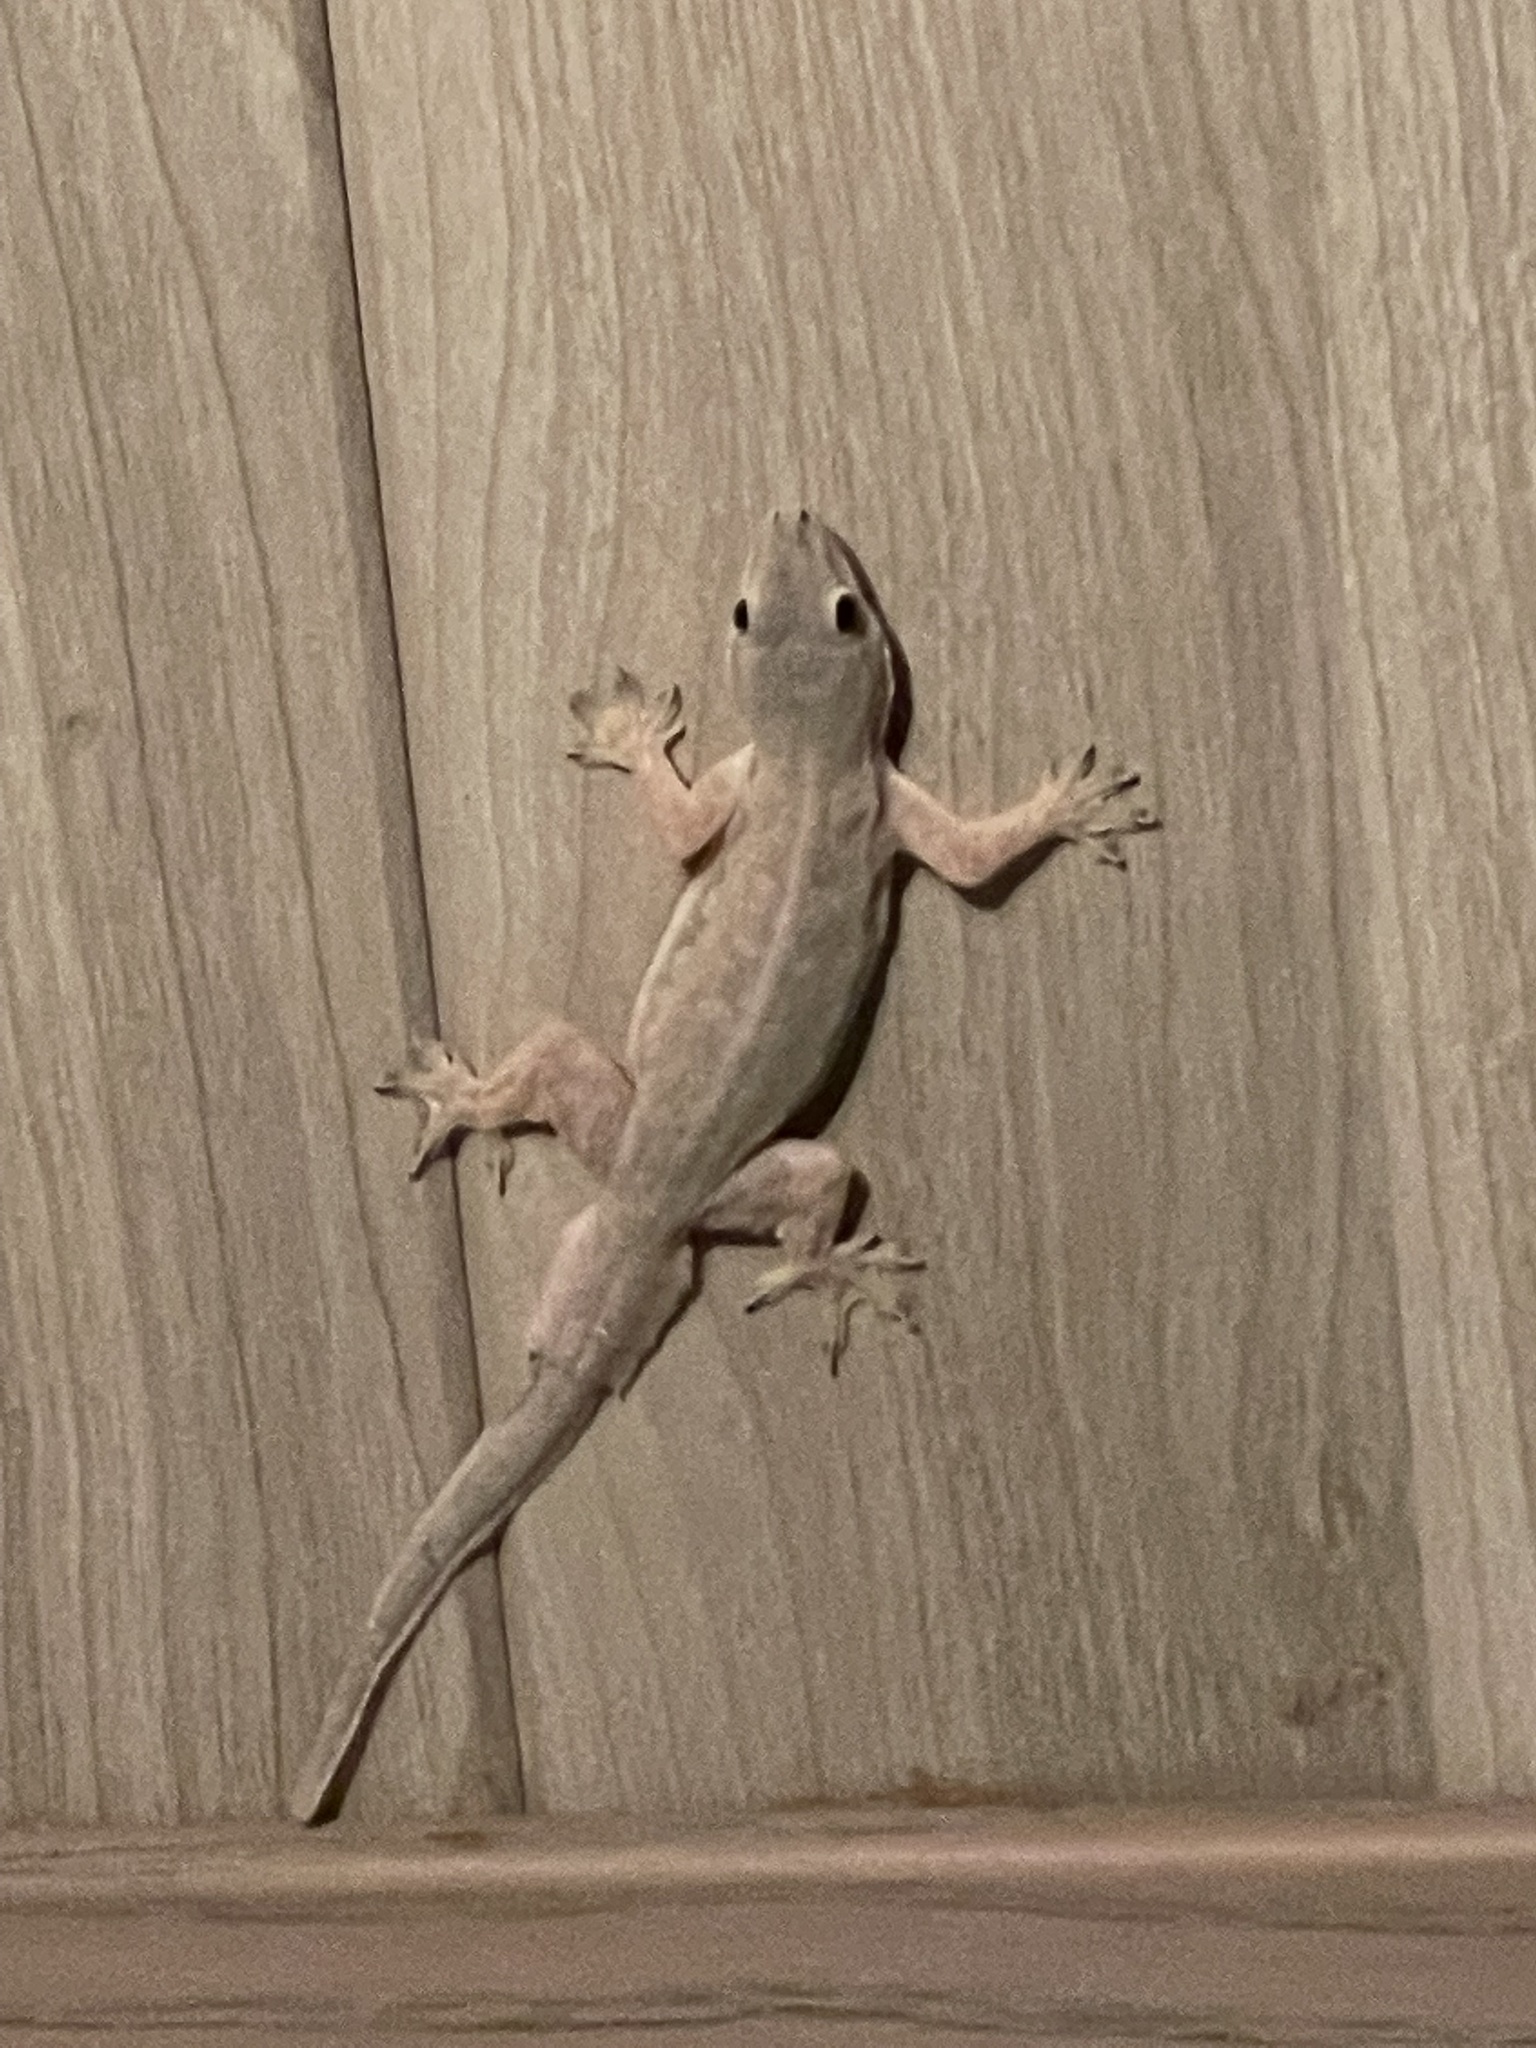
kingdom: Animalia
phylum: Chordata
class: Squamata
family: Gekkonidae
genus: Hemidactylus
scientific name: Hemidactylus platyurus
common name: Flat-tailed house gecko
